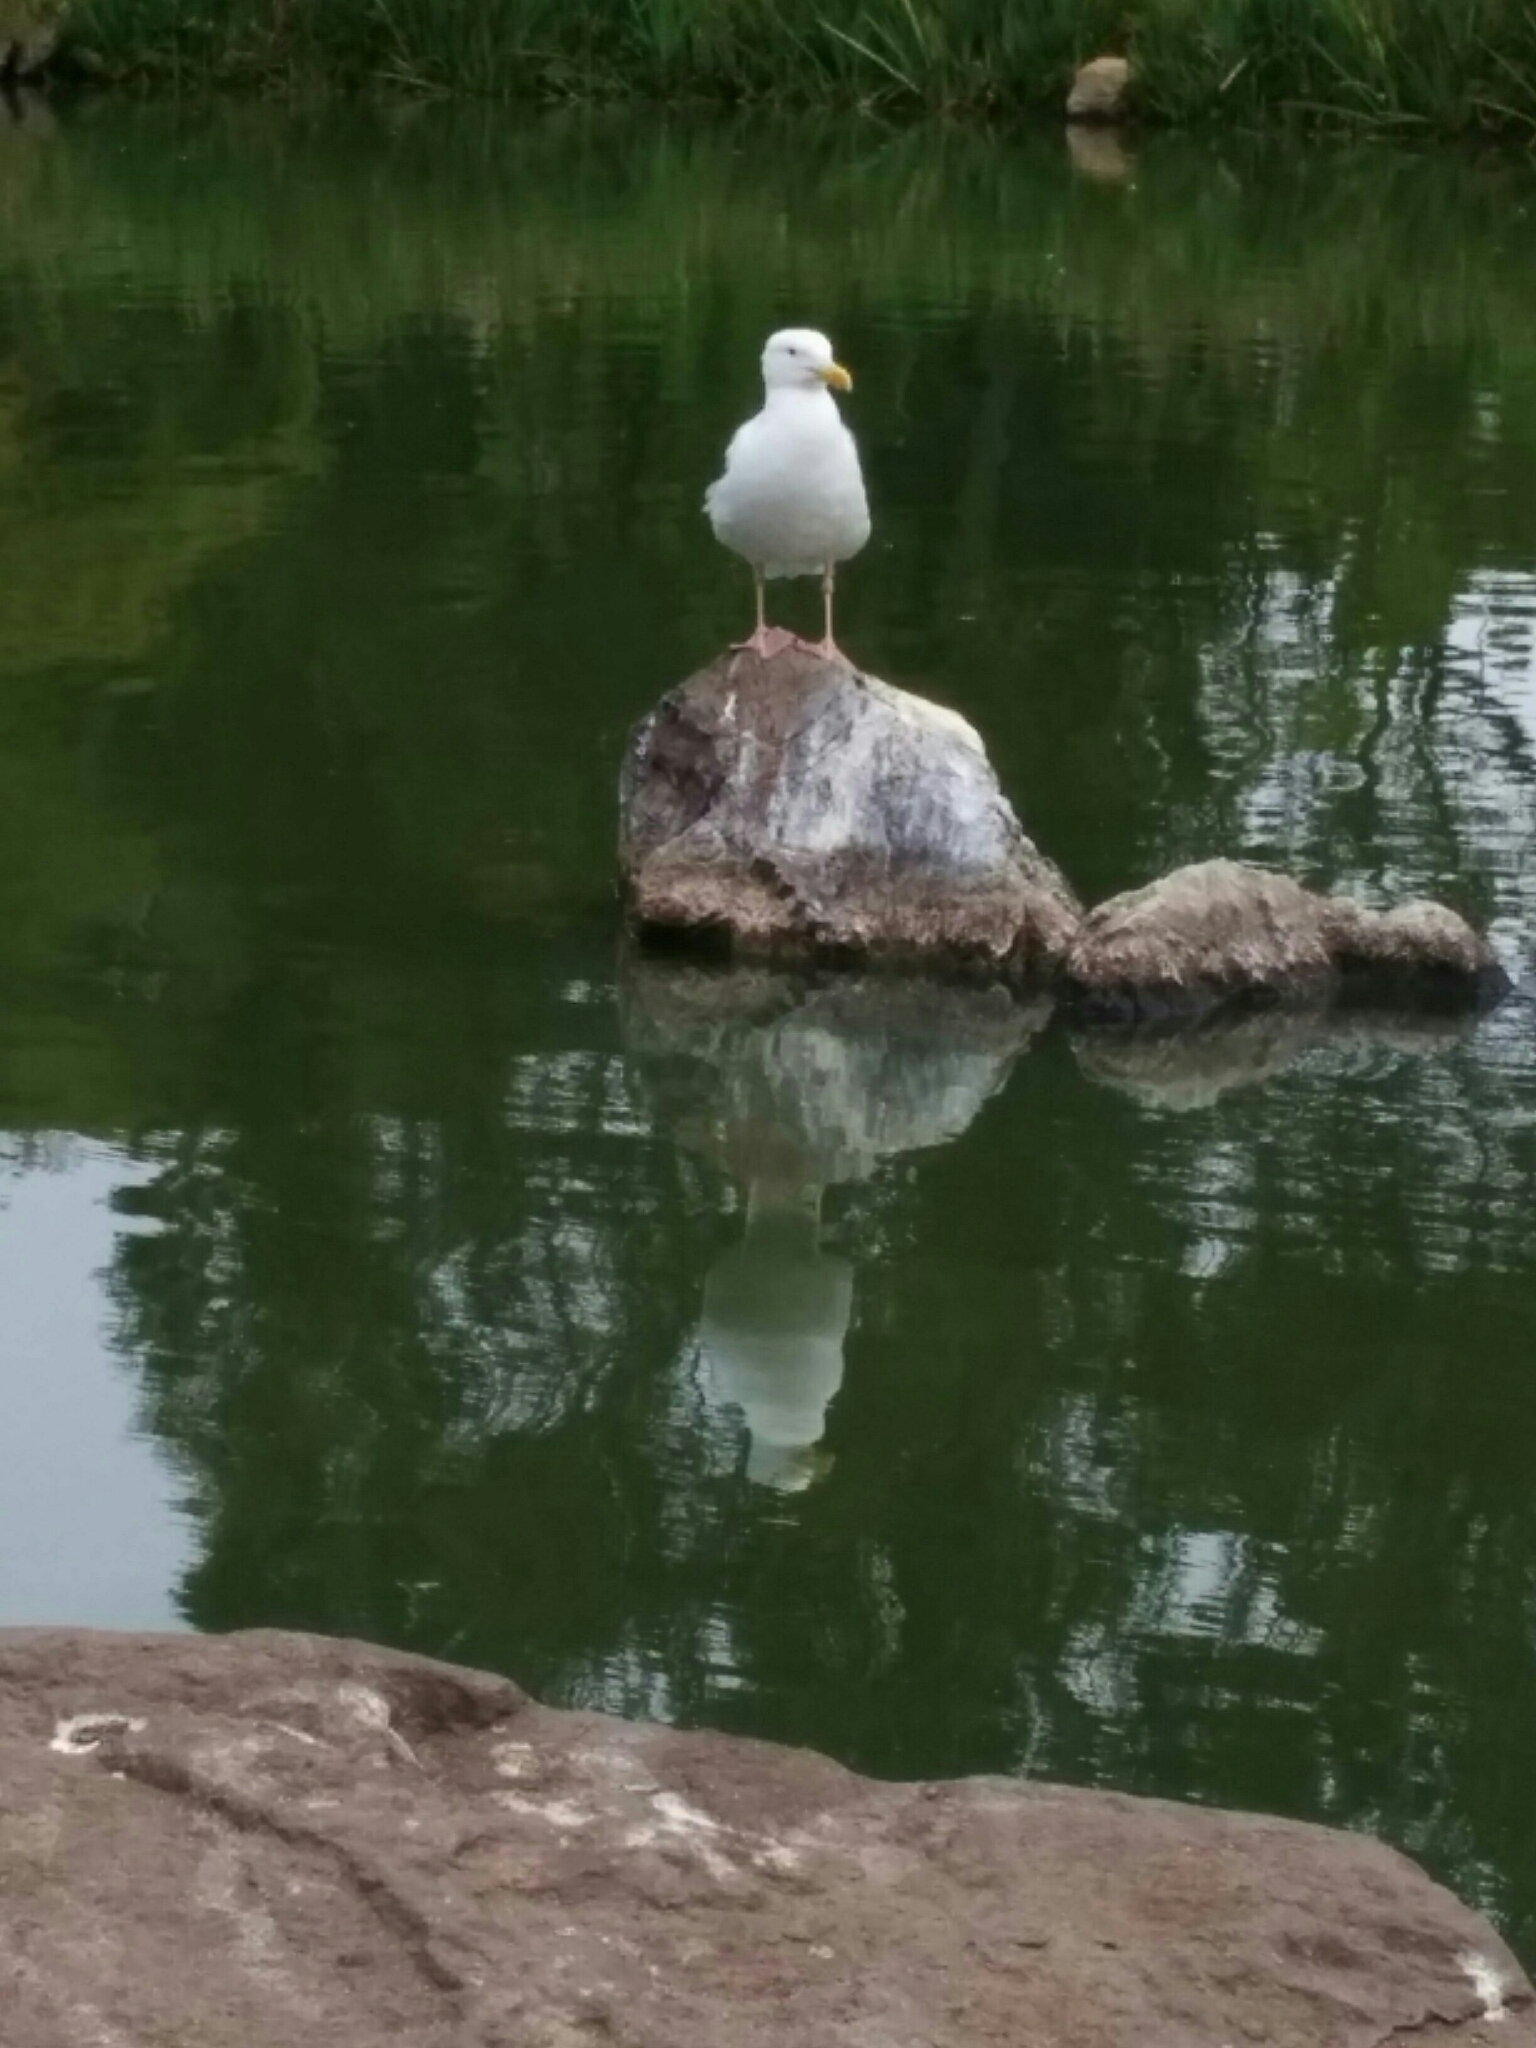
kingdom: Animalia
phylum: Chordata
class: Aves
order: Charadriiformes
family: Laridae
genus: Larus
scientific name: Larus occidentalis
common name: Western gull
